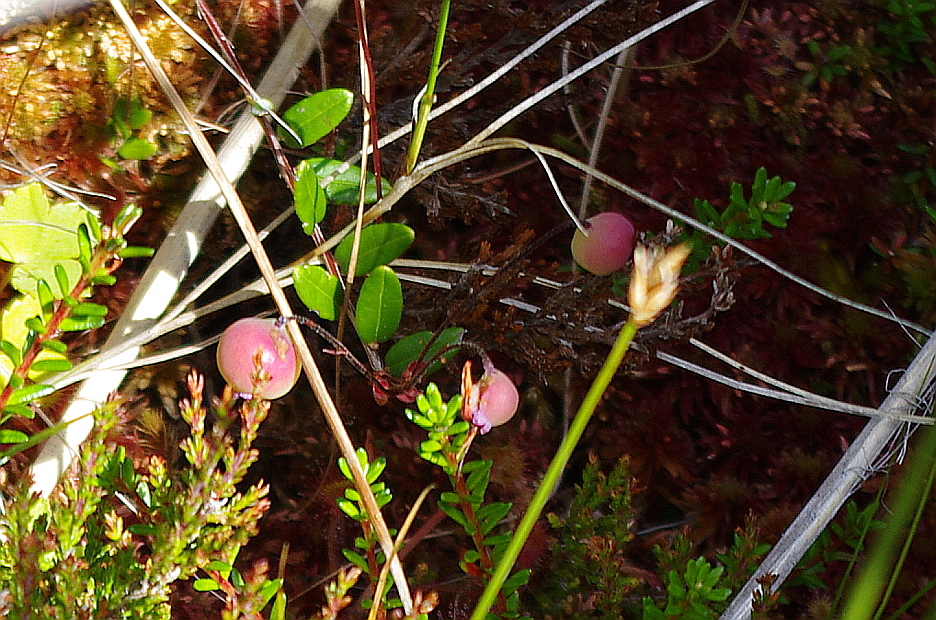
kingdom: Plantae
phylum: Tracheophyta
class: Magnoliopsida
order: Ericales
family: Ericaceae
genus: Vaccinium
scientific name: Vaccinium oxycoccos
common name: Cranberry
